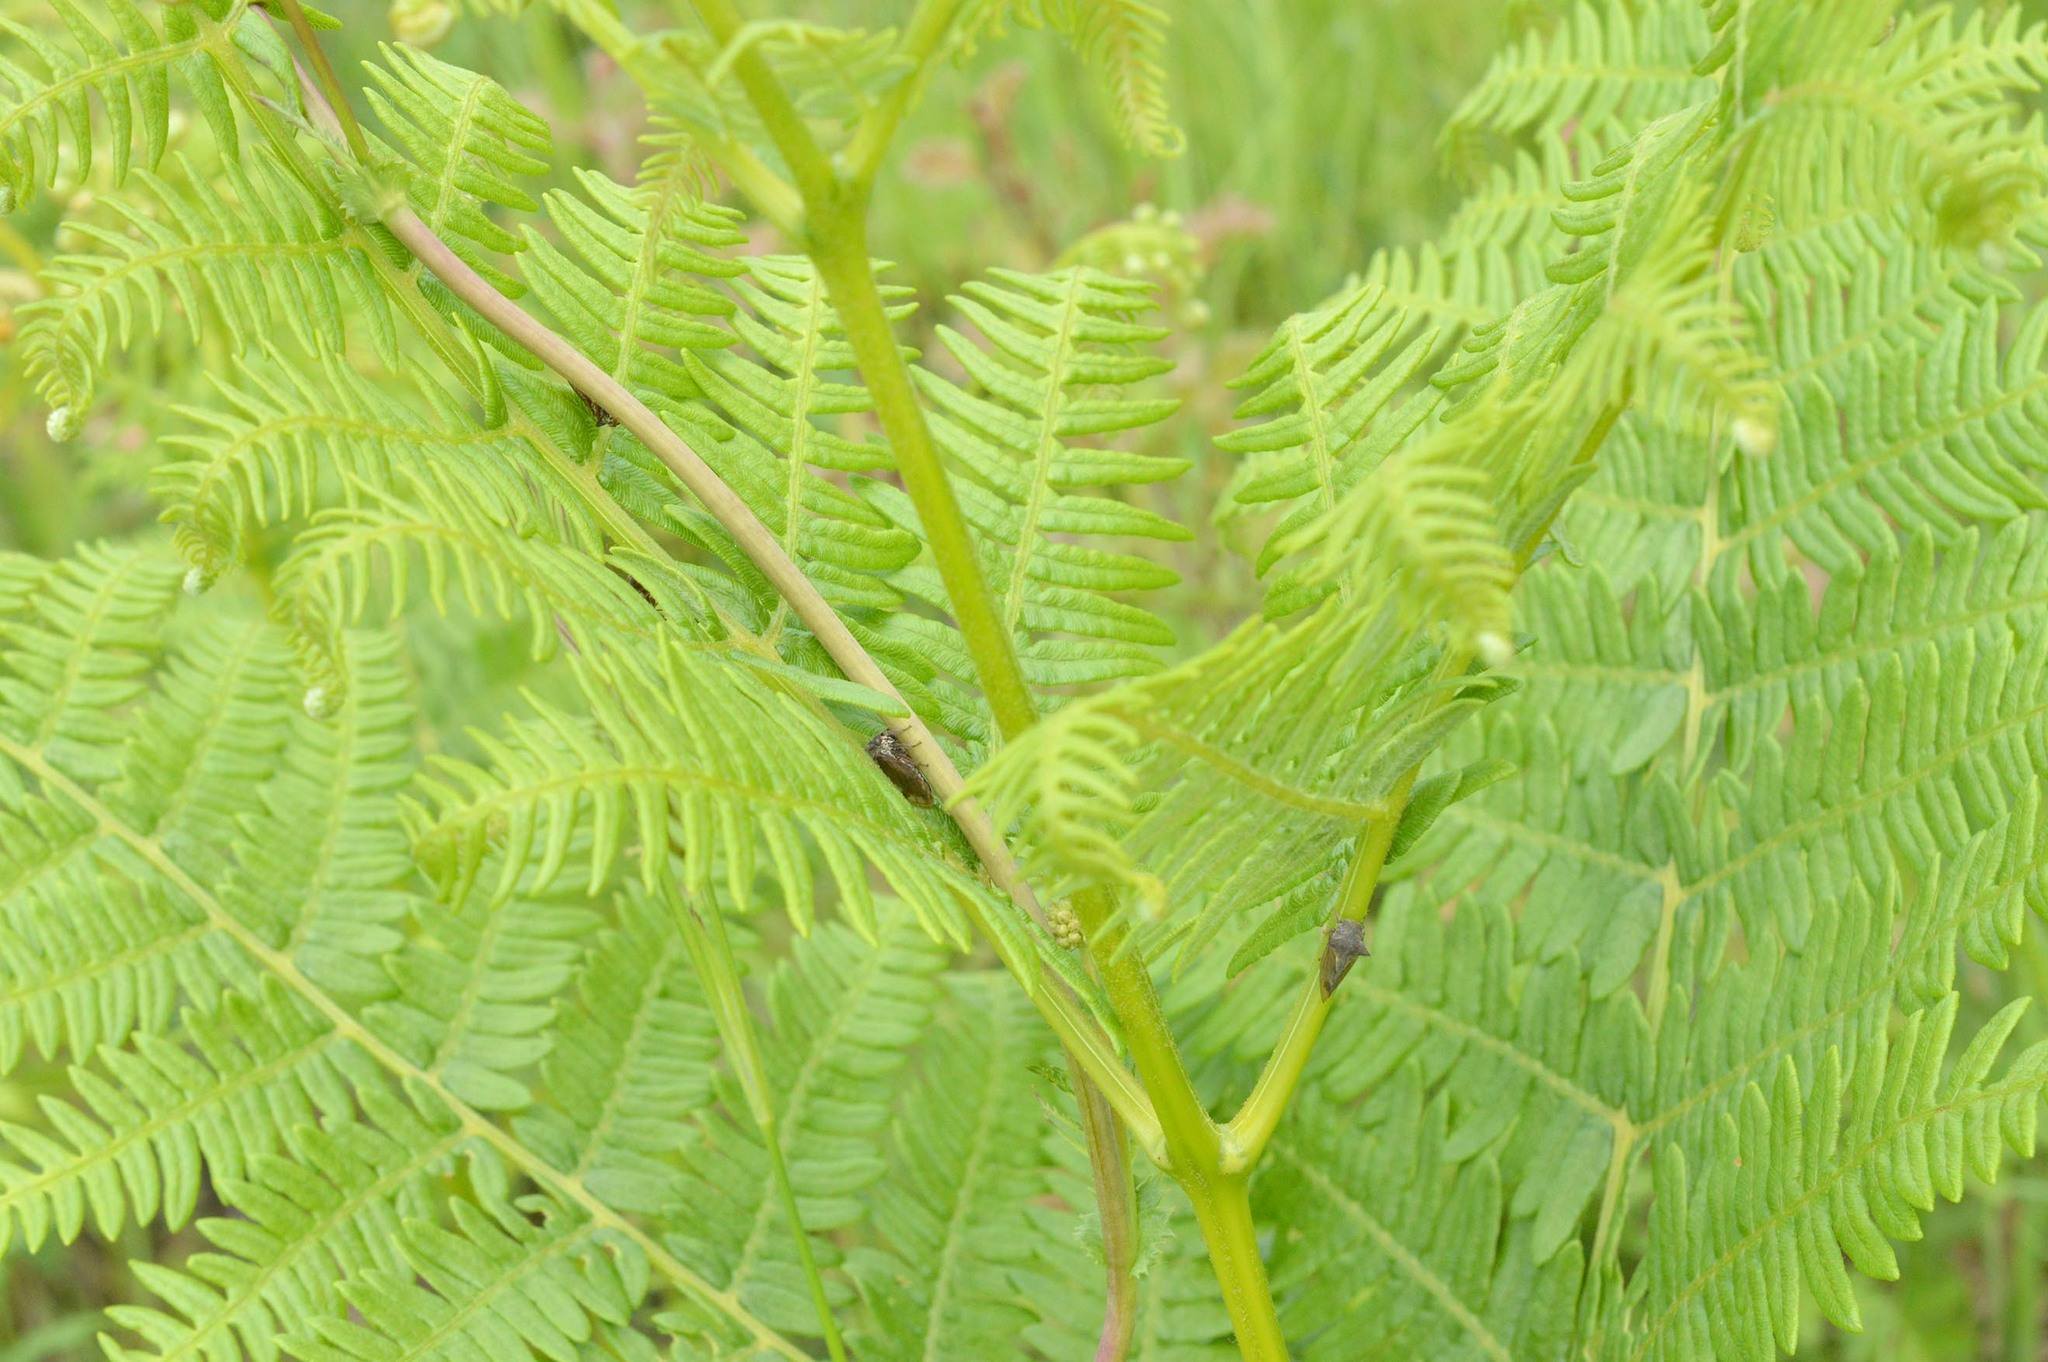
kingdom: Animalia
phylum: Arthropoda
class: Insecta
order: Hemiptera
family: Membracidae
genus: Centrotus
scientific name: Centrotus cornuta
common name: Treehopper
